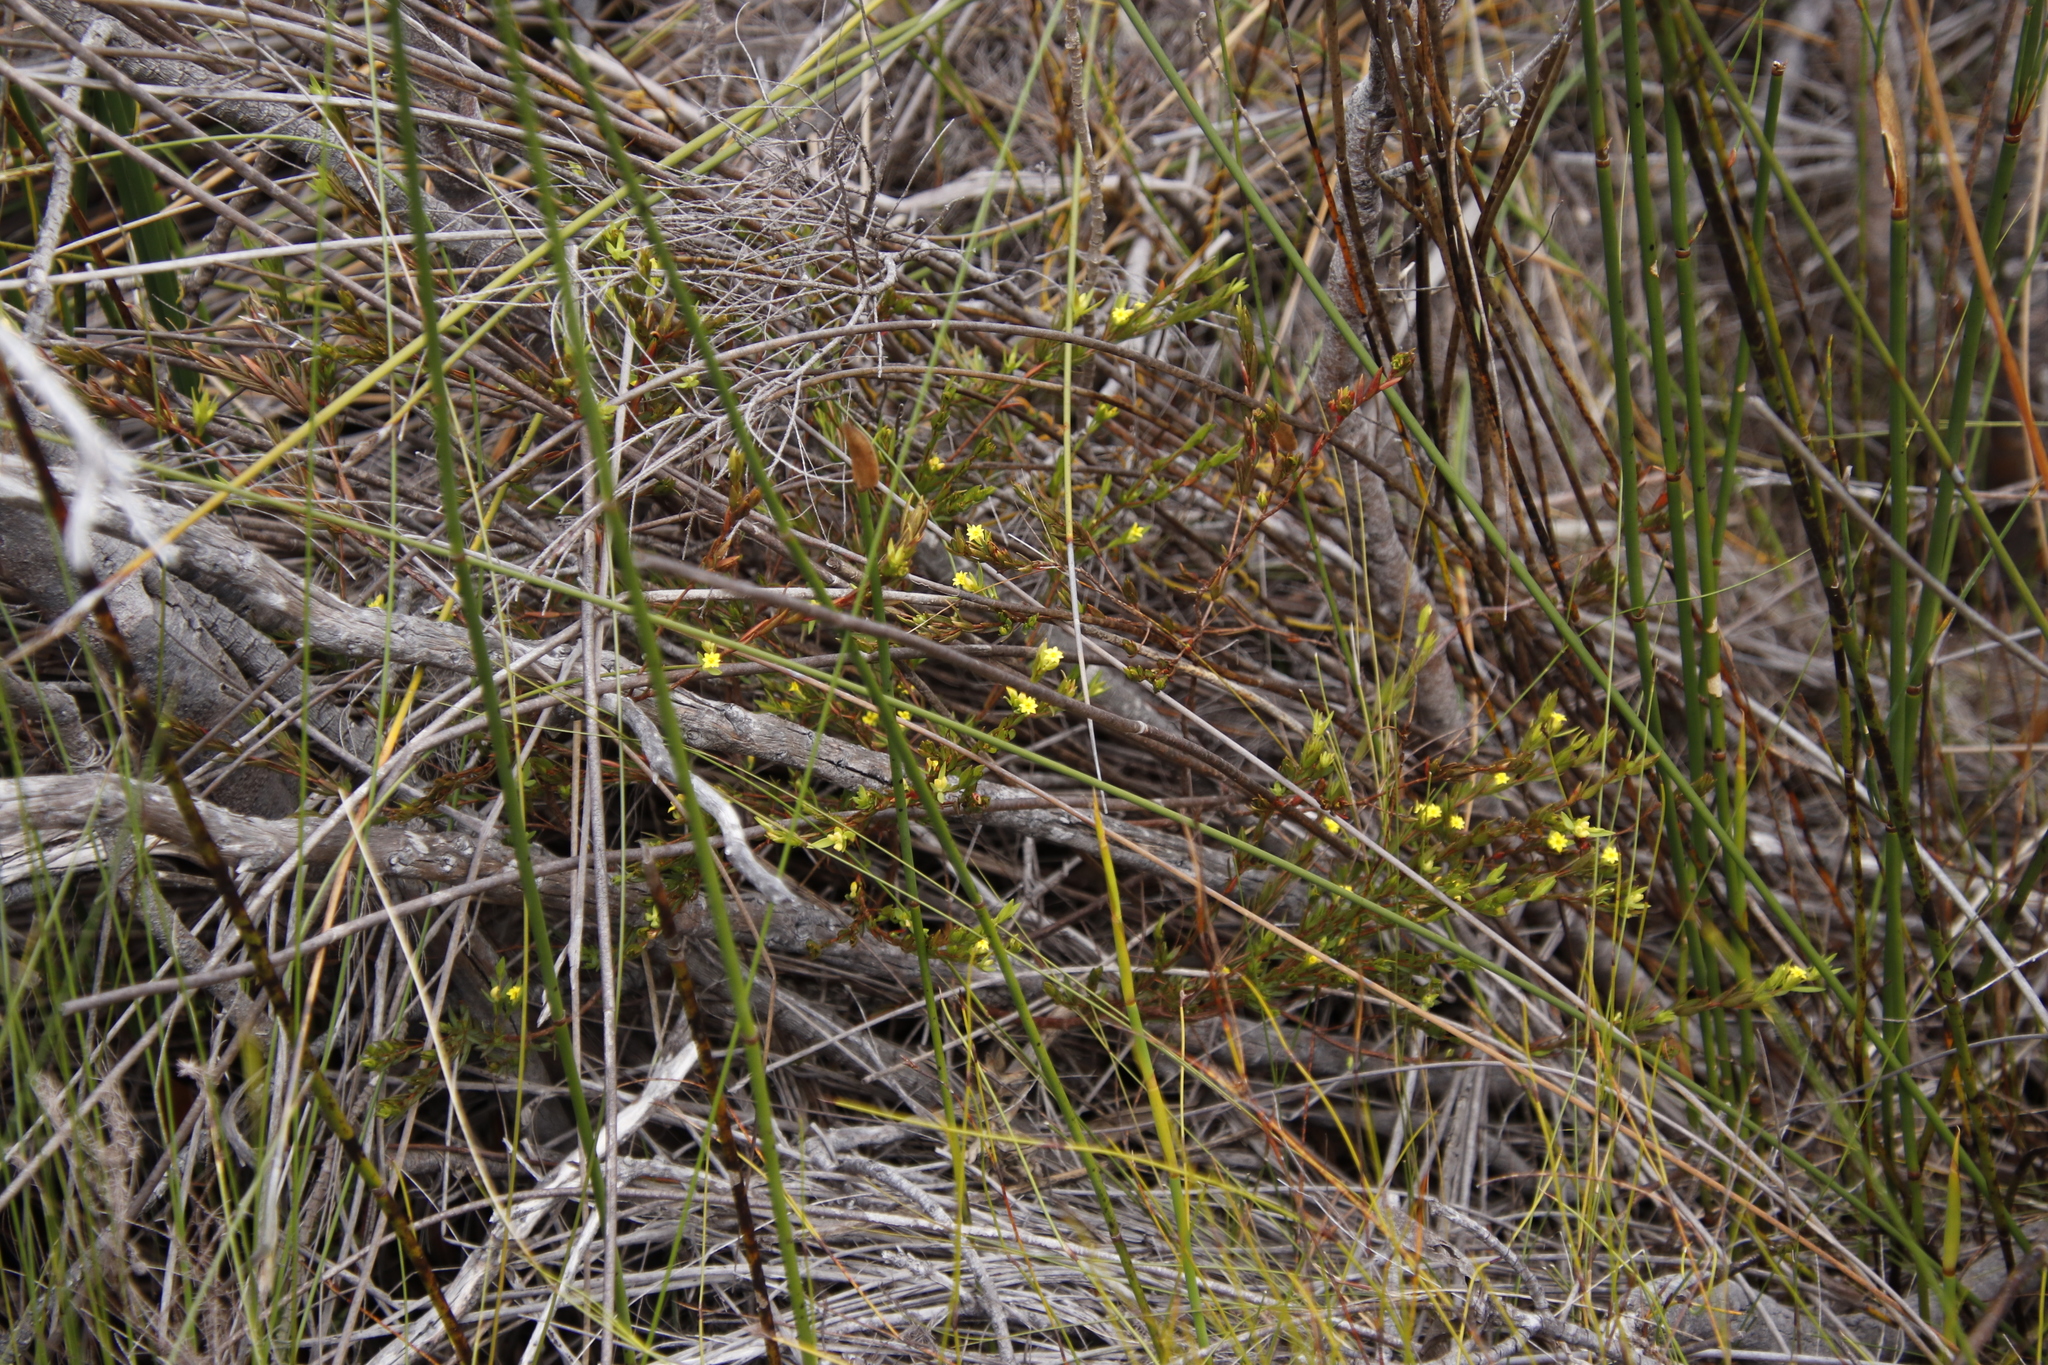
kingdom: Plantae
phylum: Tracheophyta
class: Magnoliopsida
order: Malvales
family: Thymelaeaceae
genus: Gnidia
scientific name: Gnidia juniperifolia
